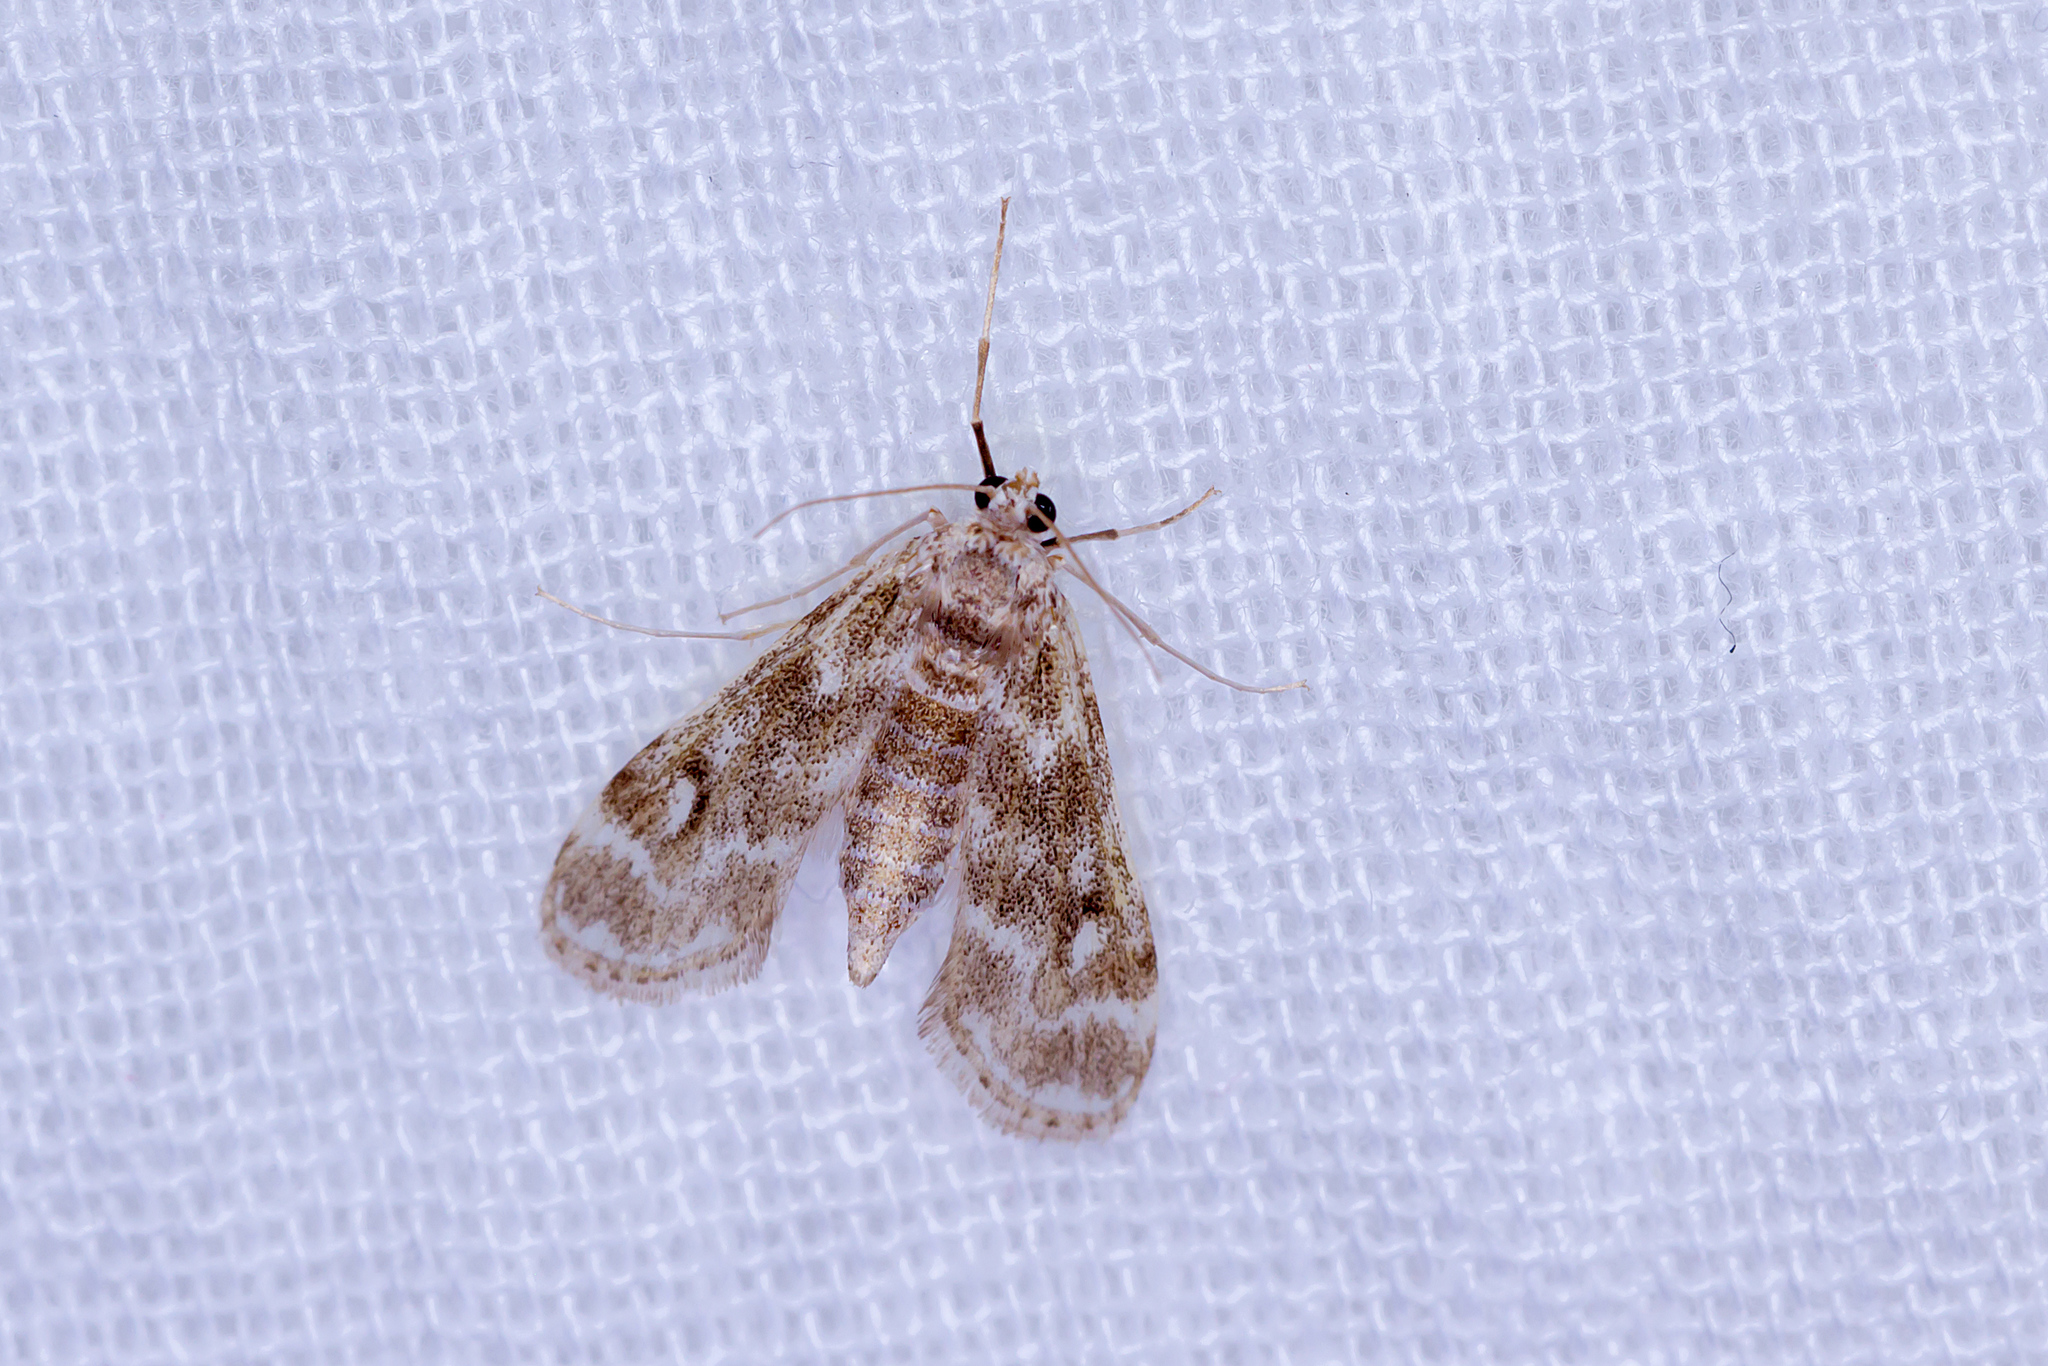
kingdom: Animalia
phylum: Arthropoda
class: Insecta
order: Lepidoptera
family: Crambidae
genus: Hygraula
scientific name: Hygraula nitens
